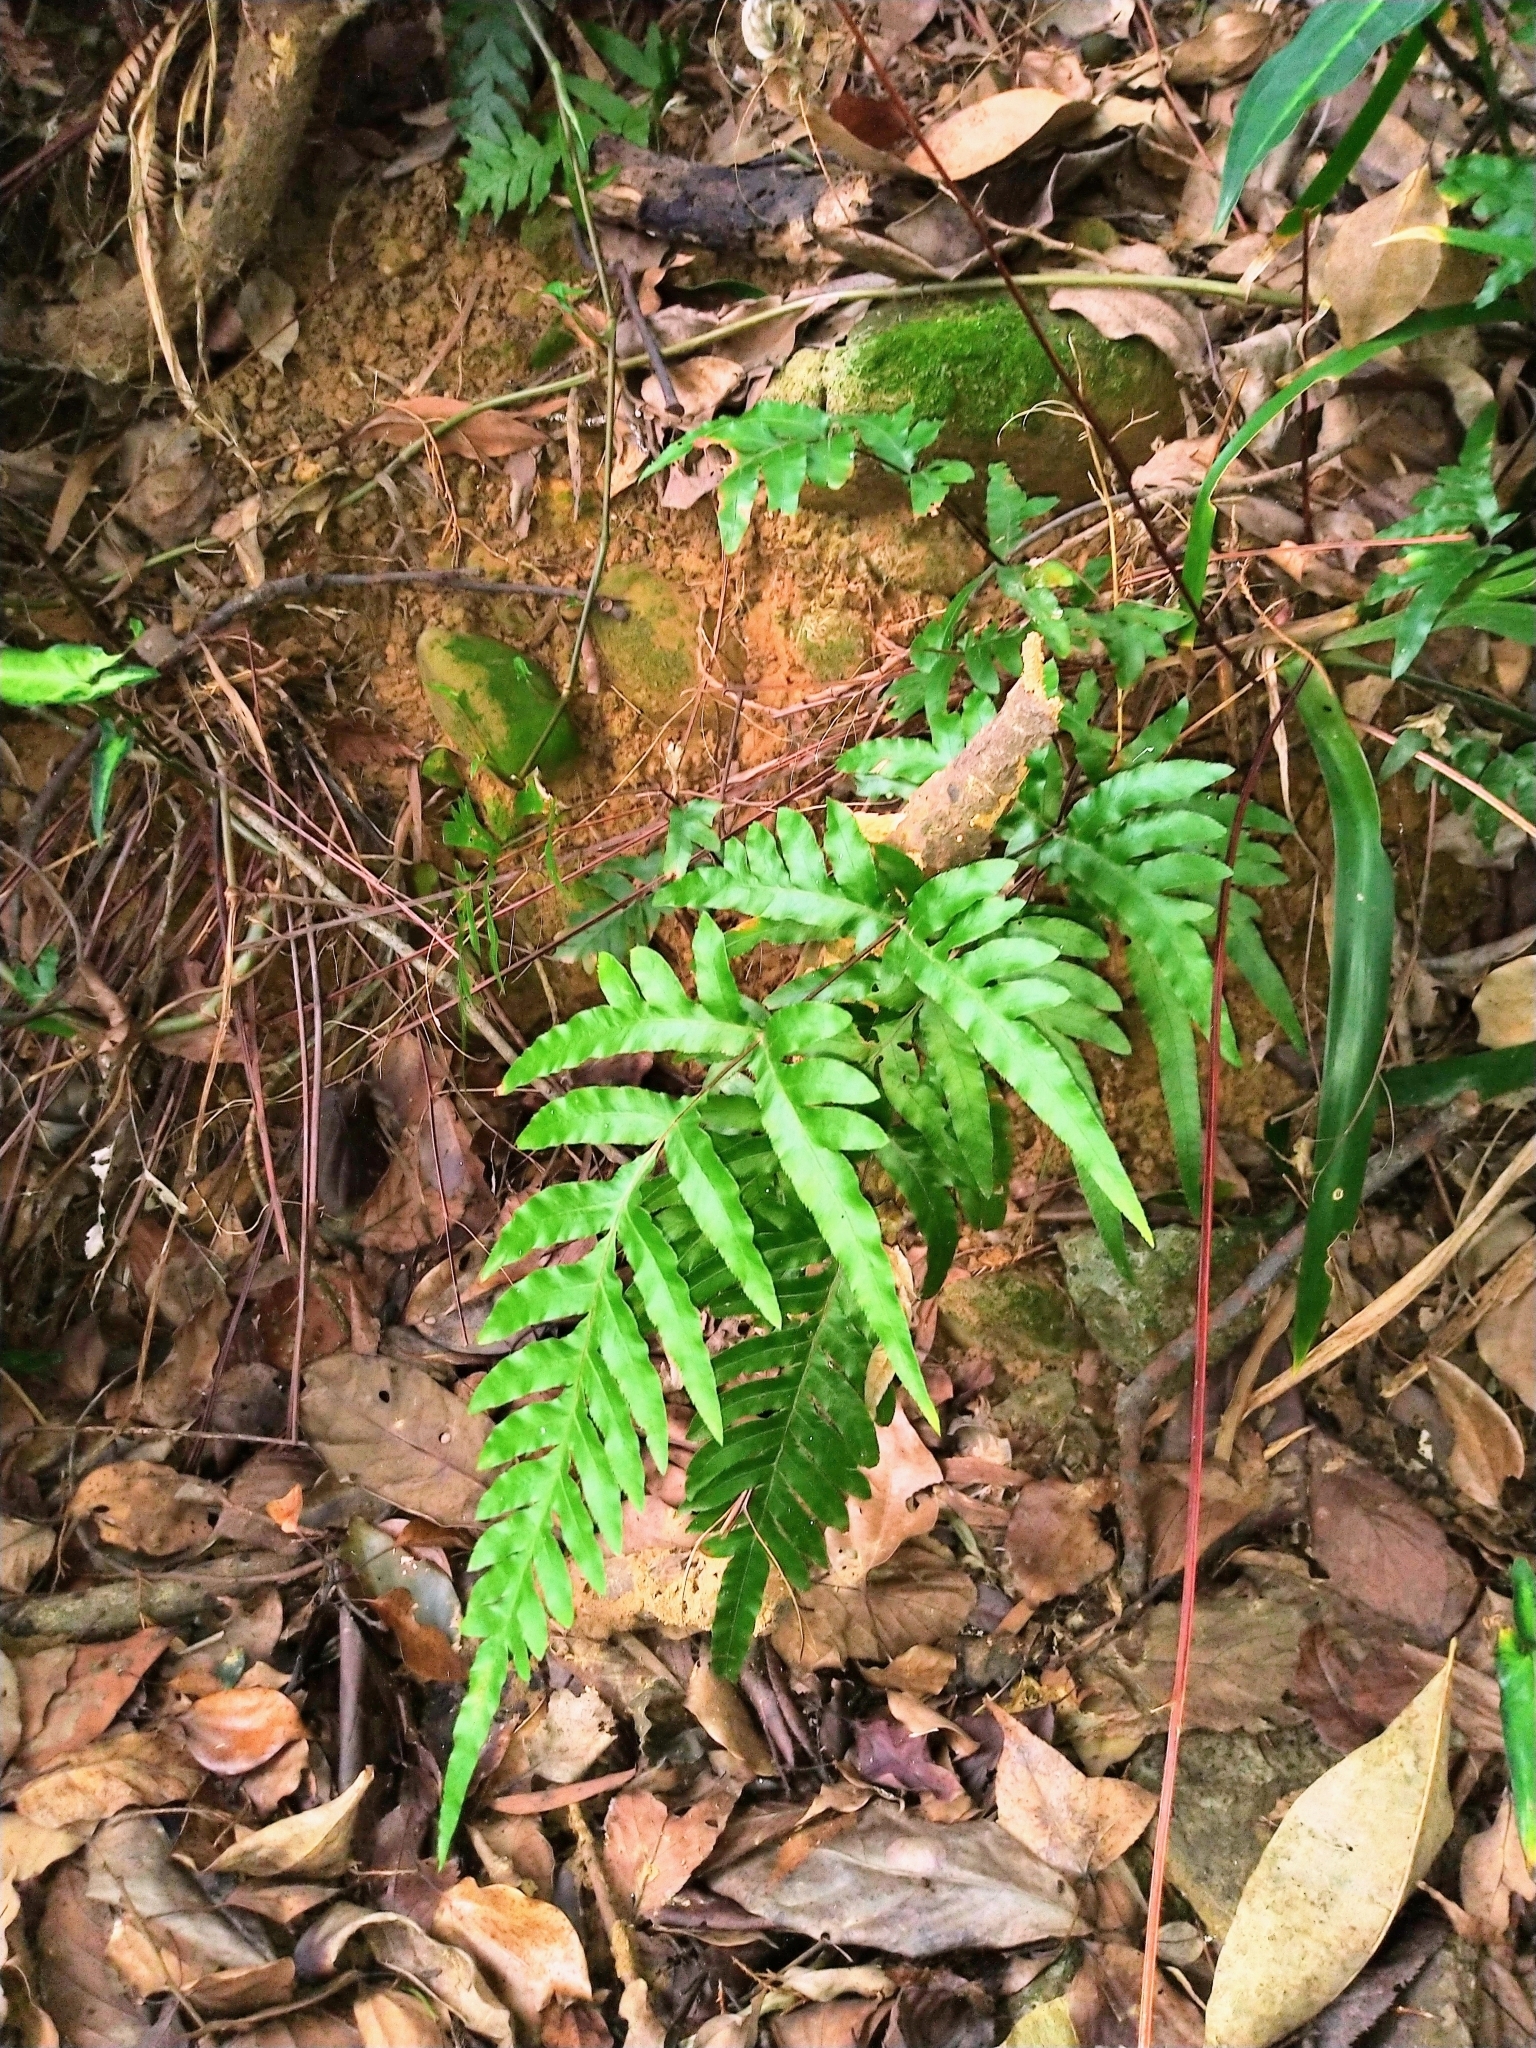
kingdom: Plantae
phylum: Tracheophyta
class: Polypodiopsida
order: Polypodiales
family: Pteridaceae
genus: Pteris
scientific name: Pteris semipinnata
